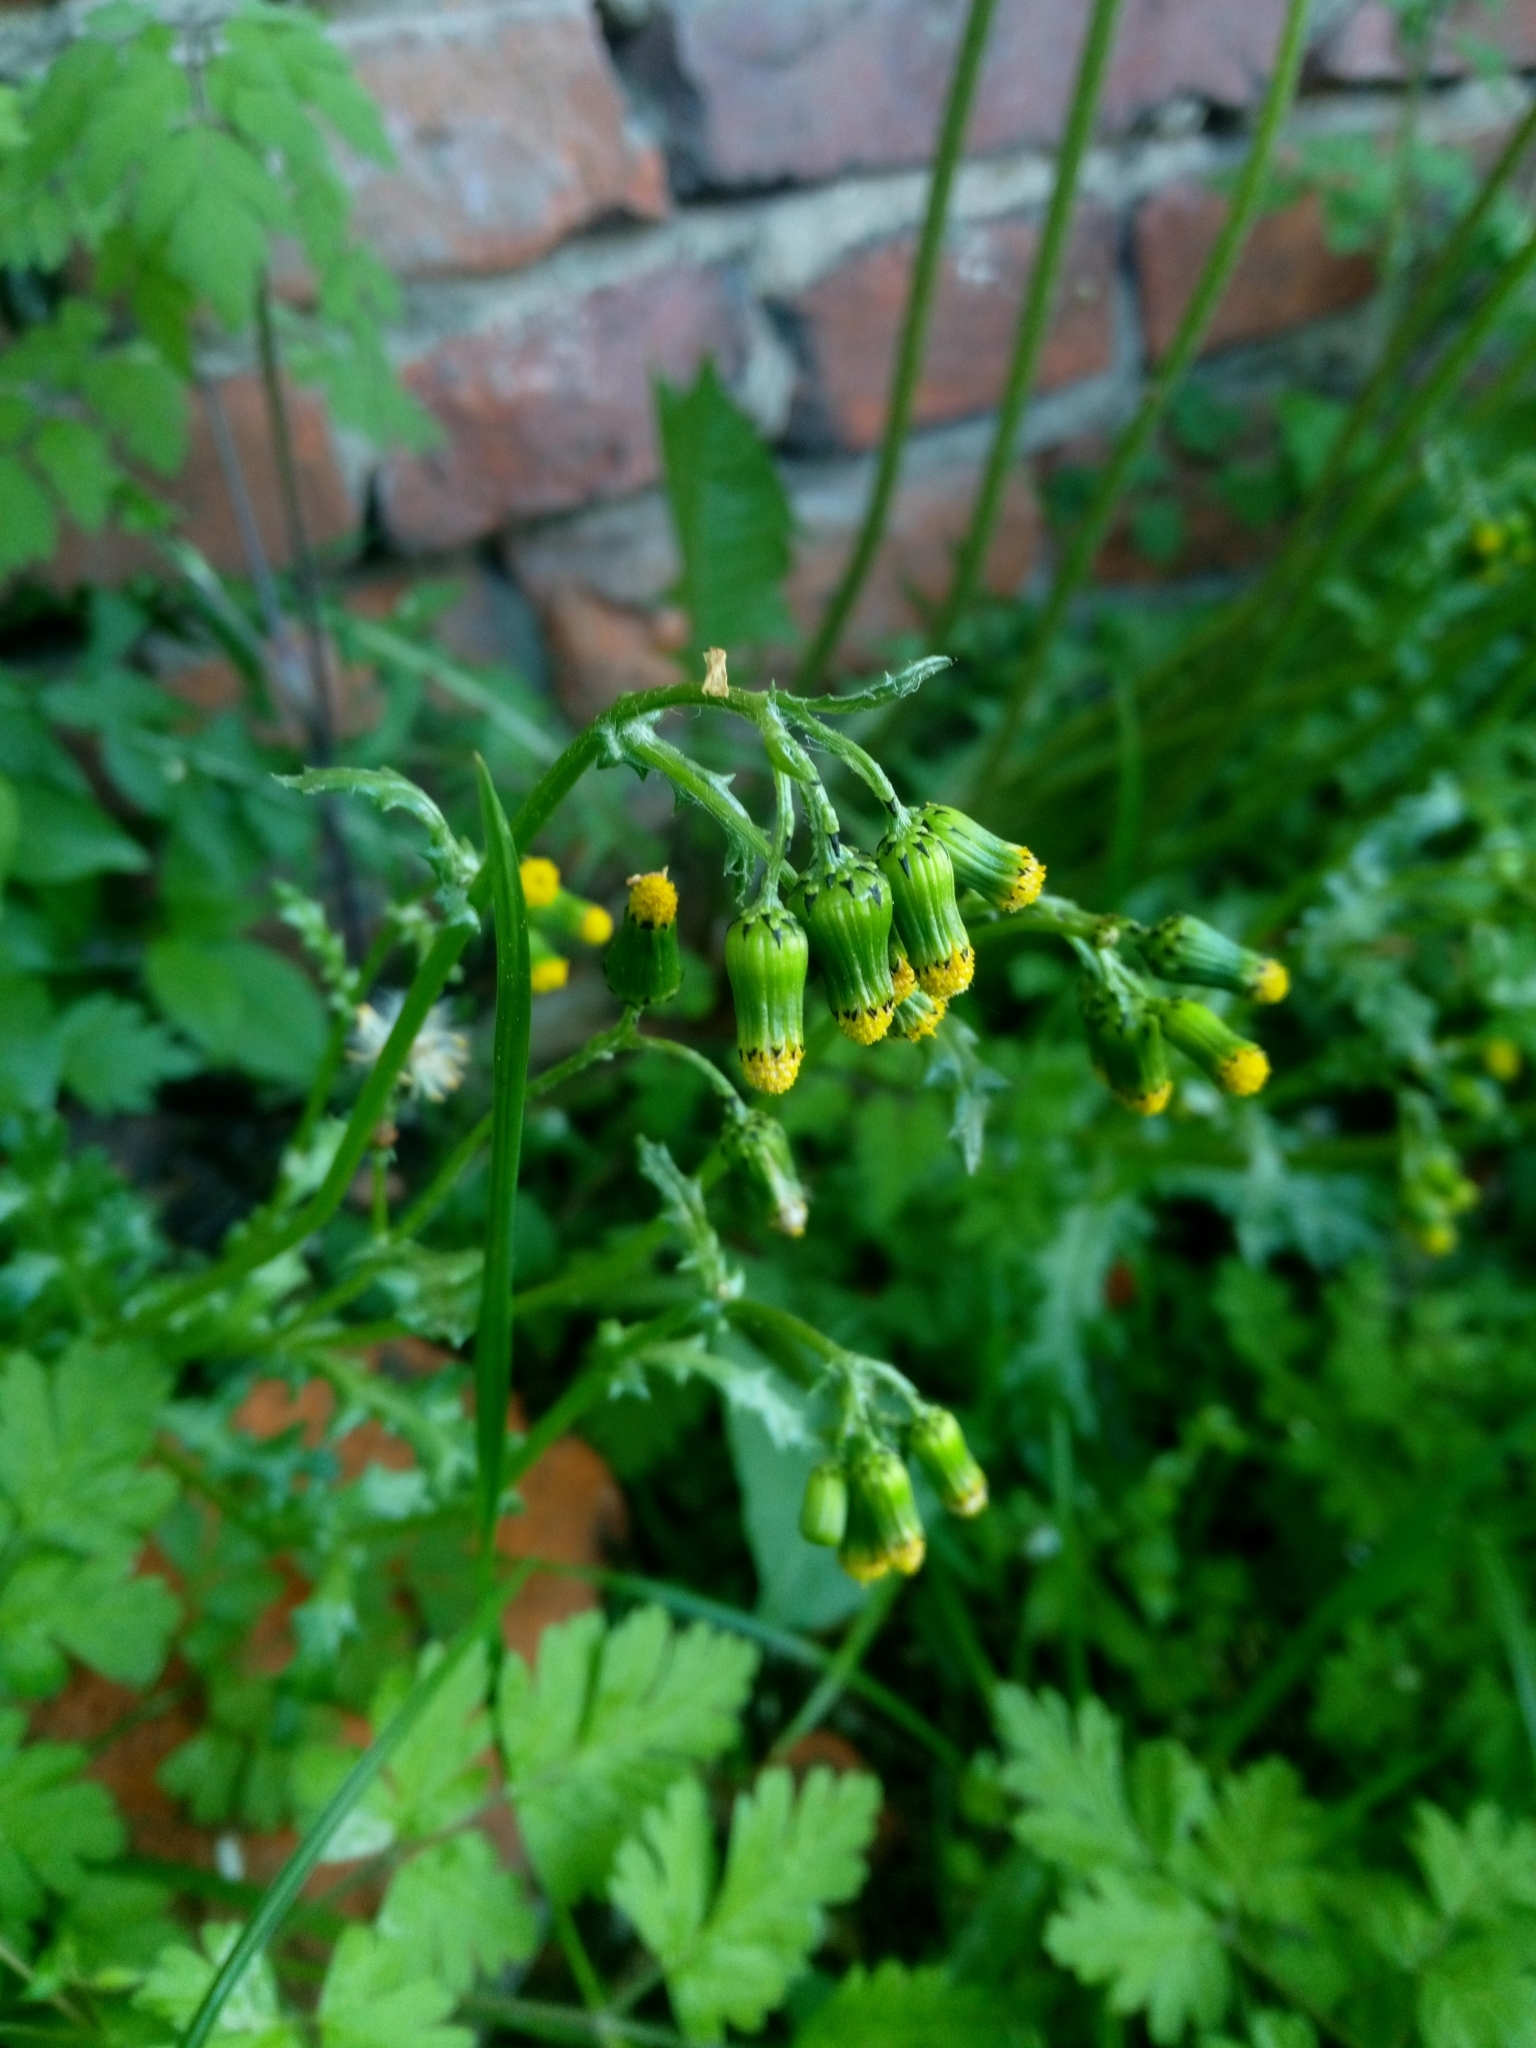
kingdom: Plantae
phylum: Tracheophyta
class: Magnoliopsida
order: Asterales
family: Asteraceae
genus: Senecio
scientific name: Senecio vulgaris
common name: Old-man-in-the-spring
